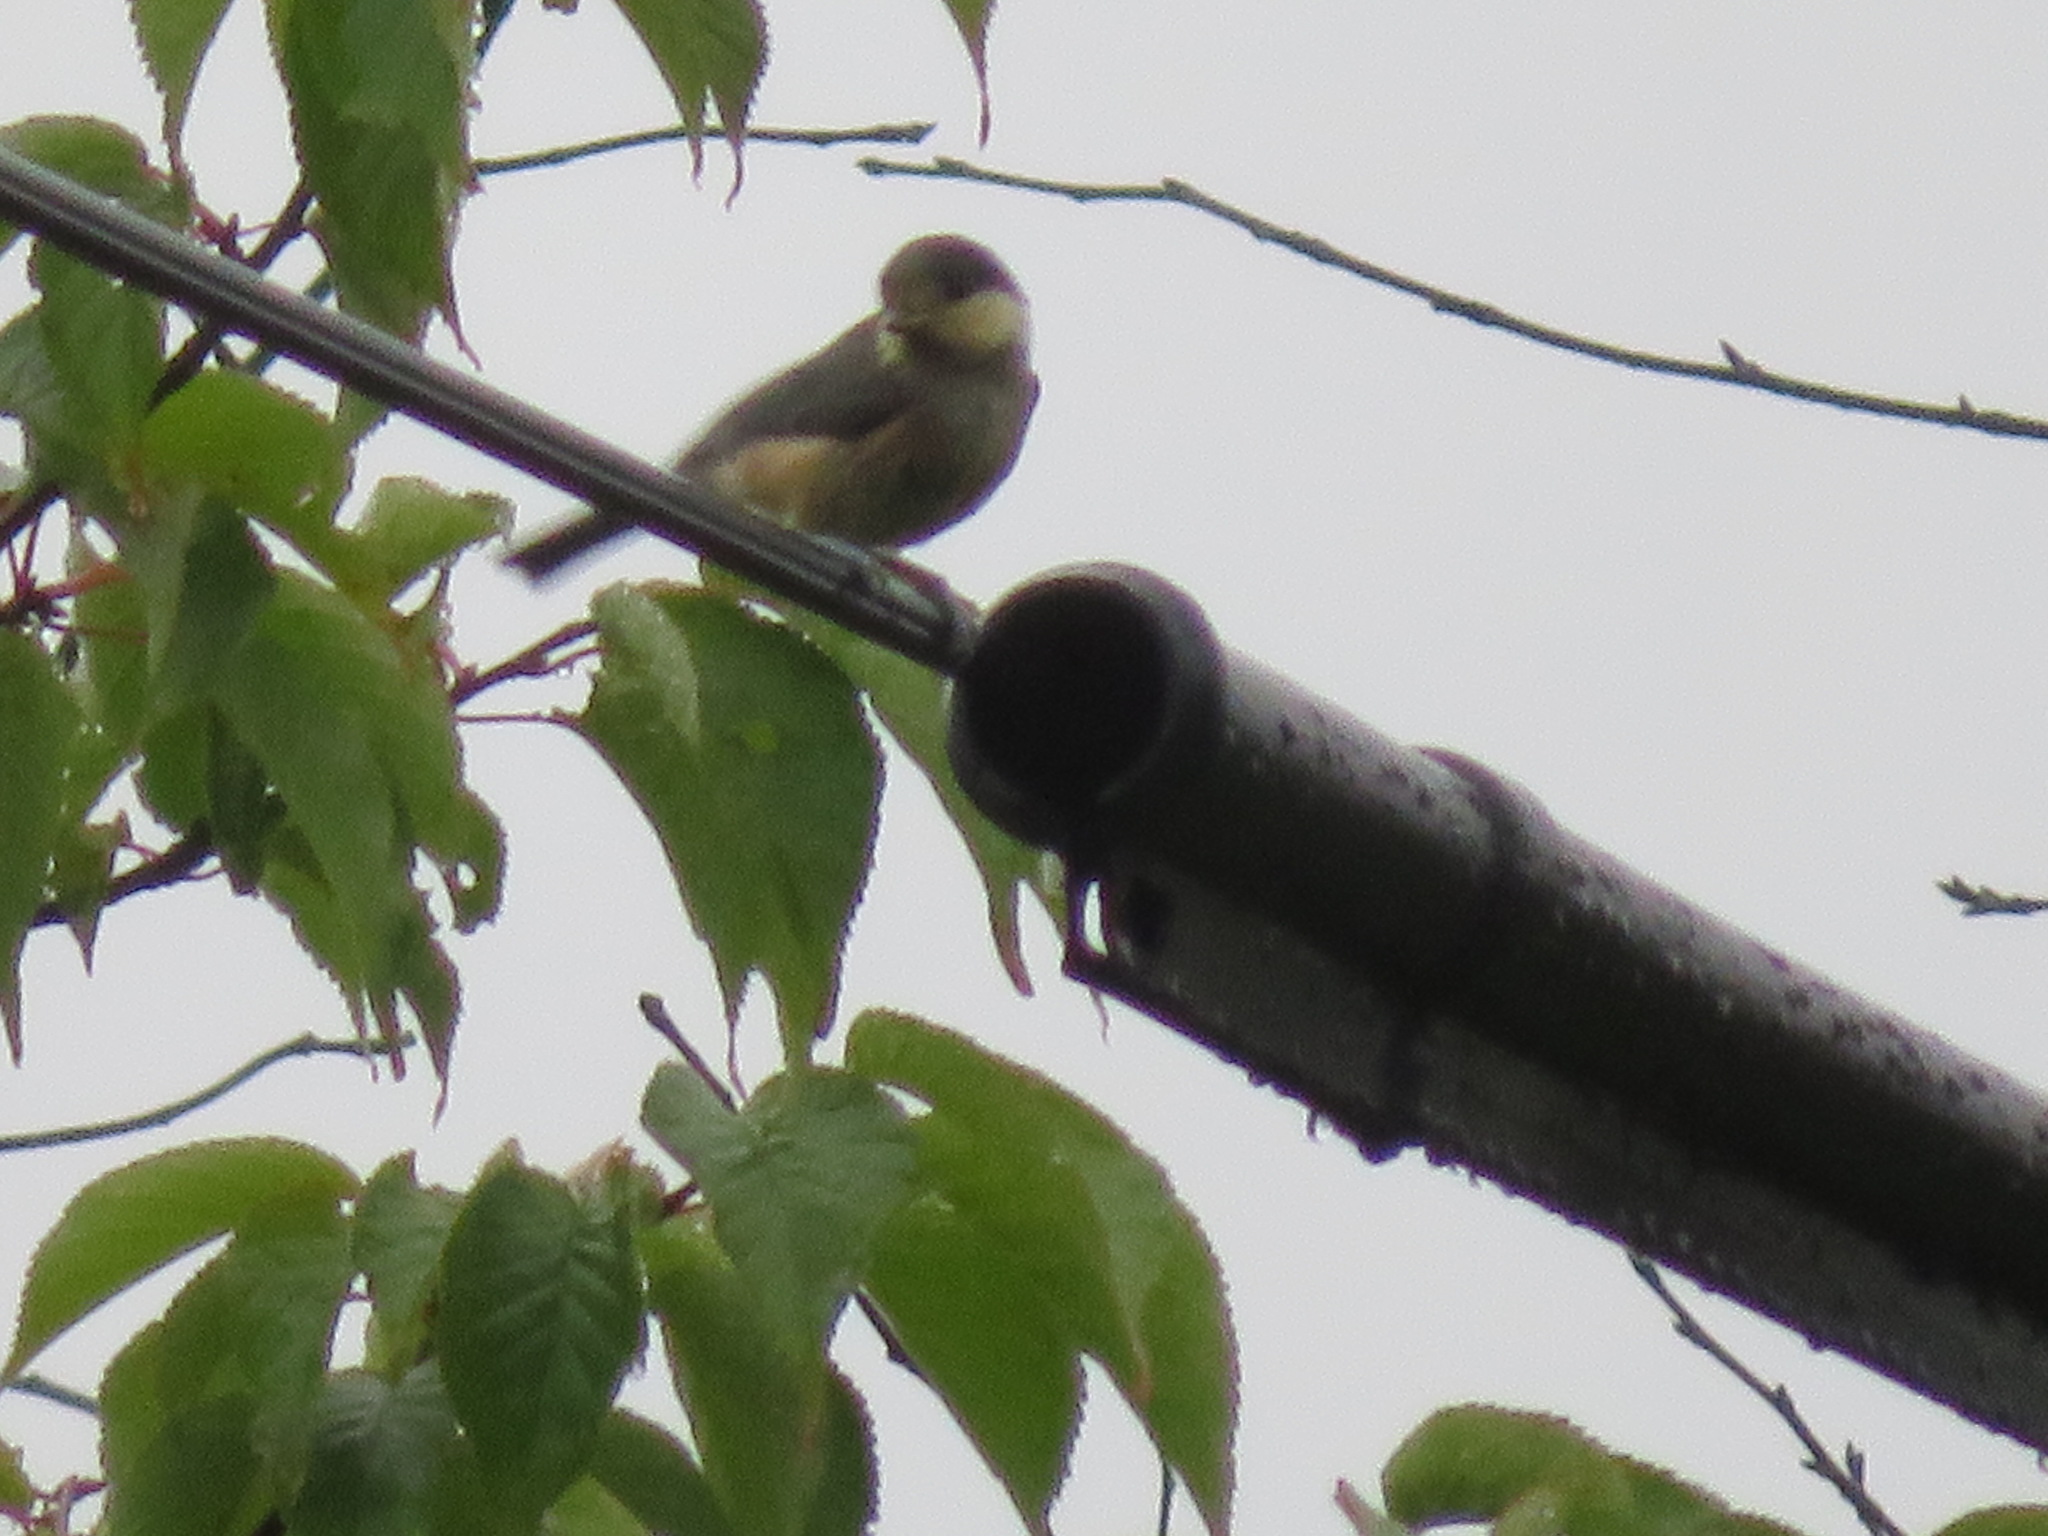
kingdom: Animalia
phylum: Chordata
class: Aves
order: Passeriformes
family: Paridae
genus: Poecile
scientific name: Poecile varius
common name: Varied tit
